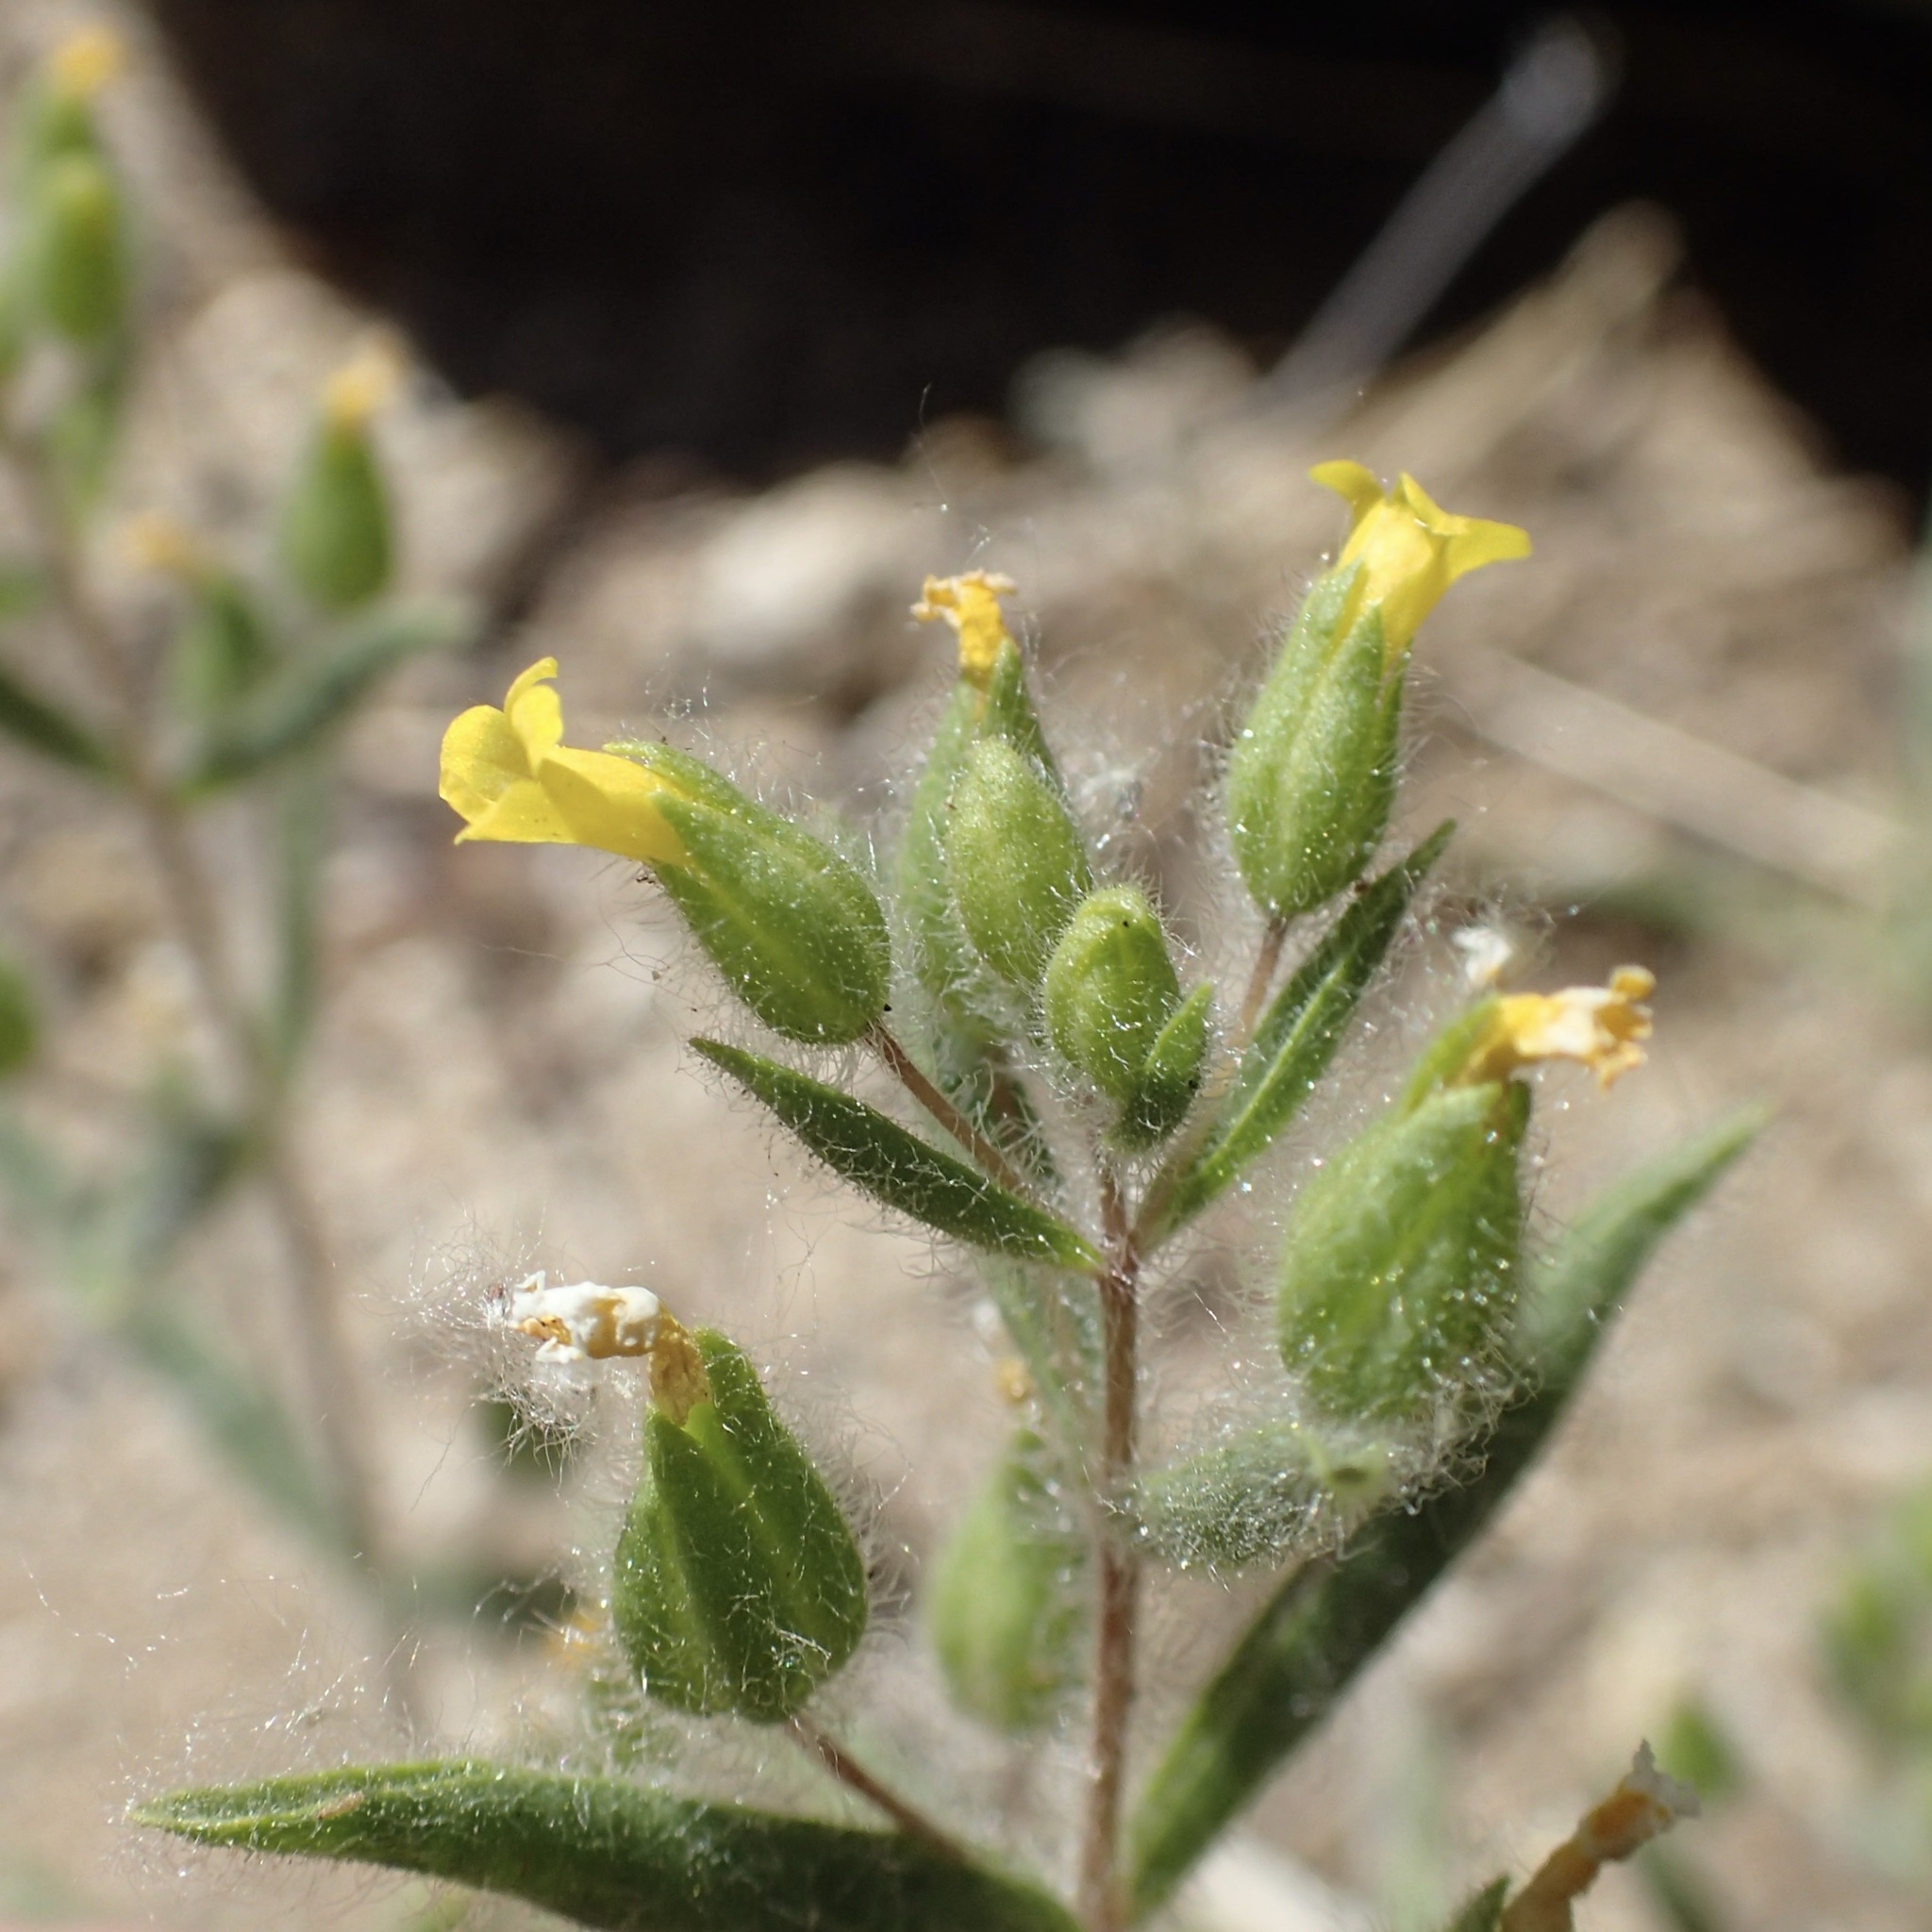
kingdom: Plantae
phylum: Tracheophyta
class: Magnoliopsida
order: Lamiales
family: Phrymaceae
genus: Mimetanthe
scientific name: Mimetanthe pilosa
